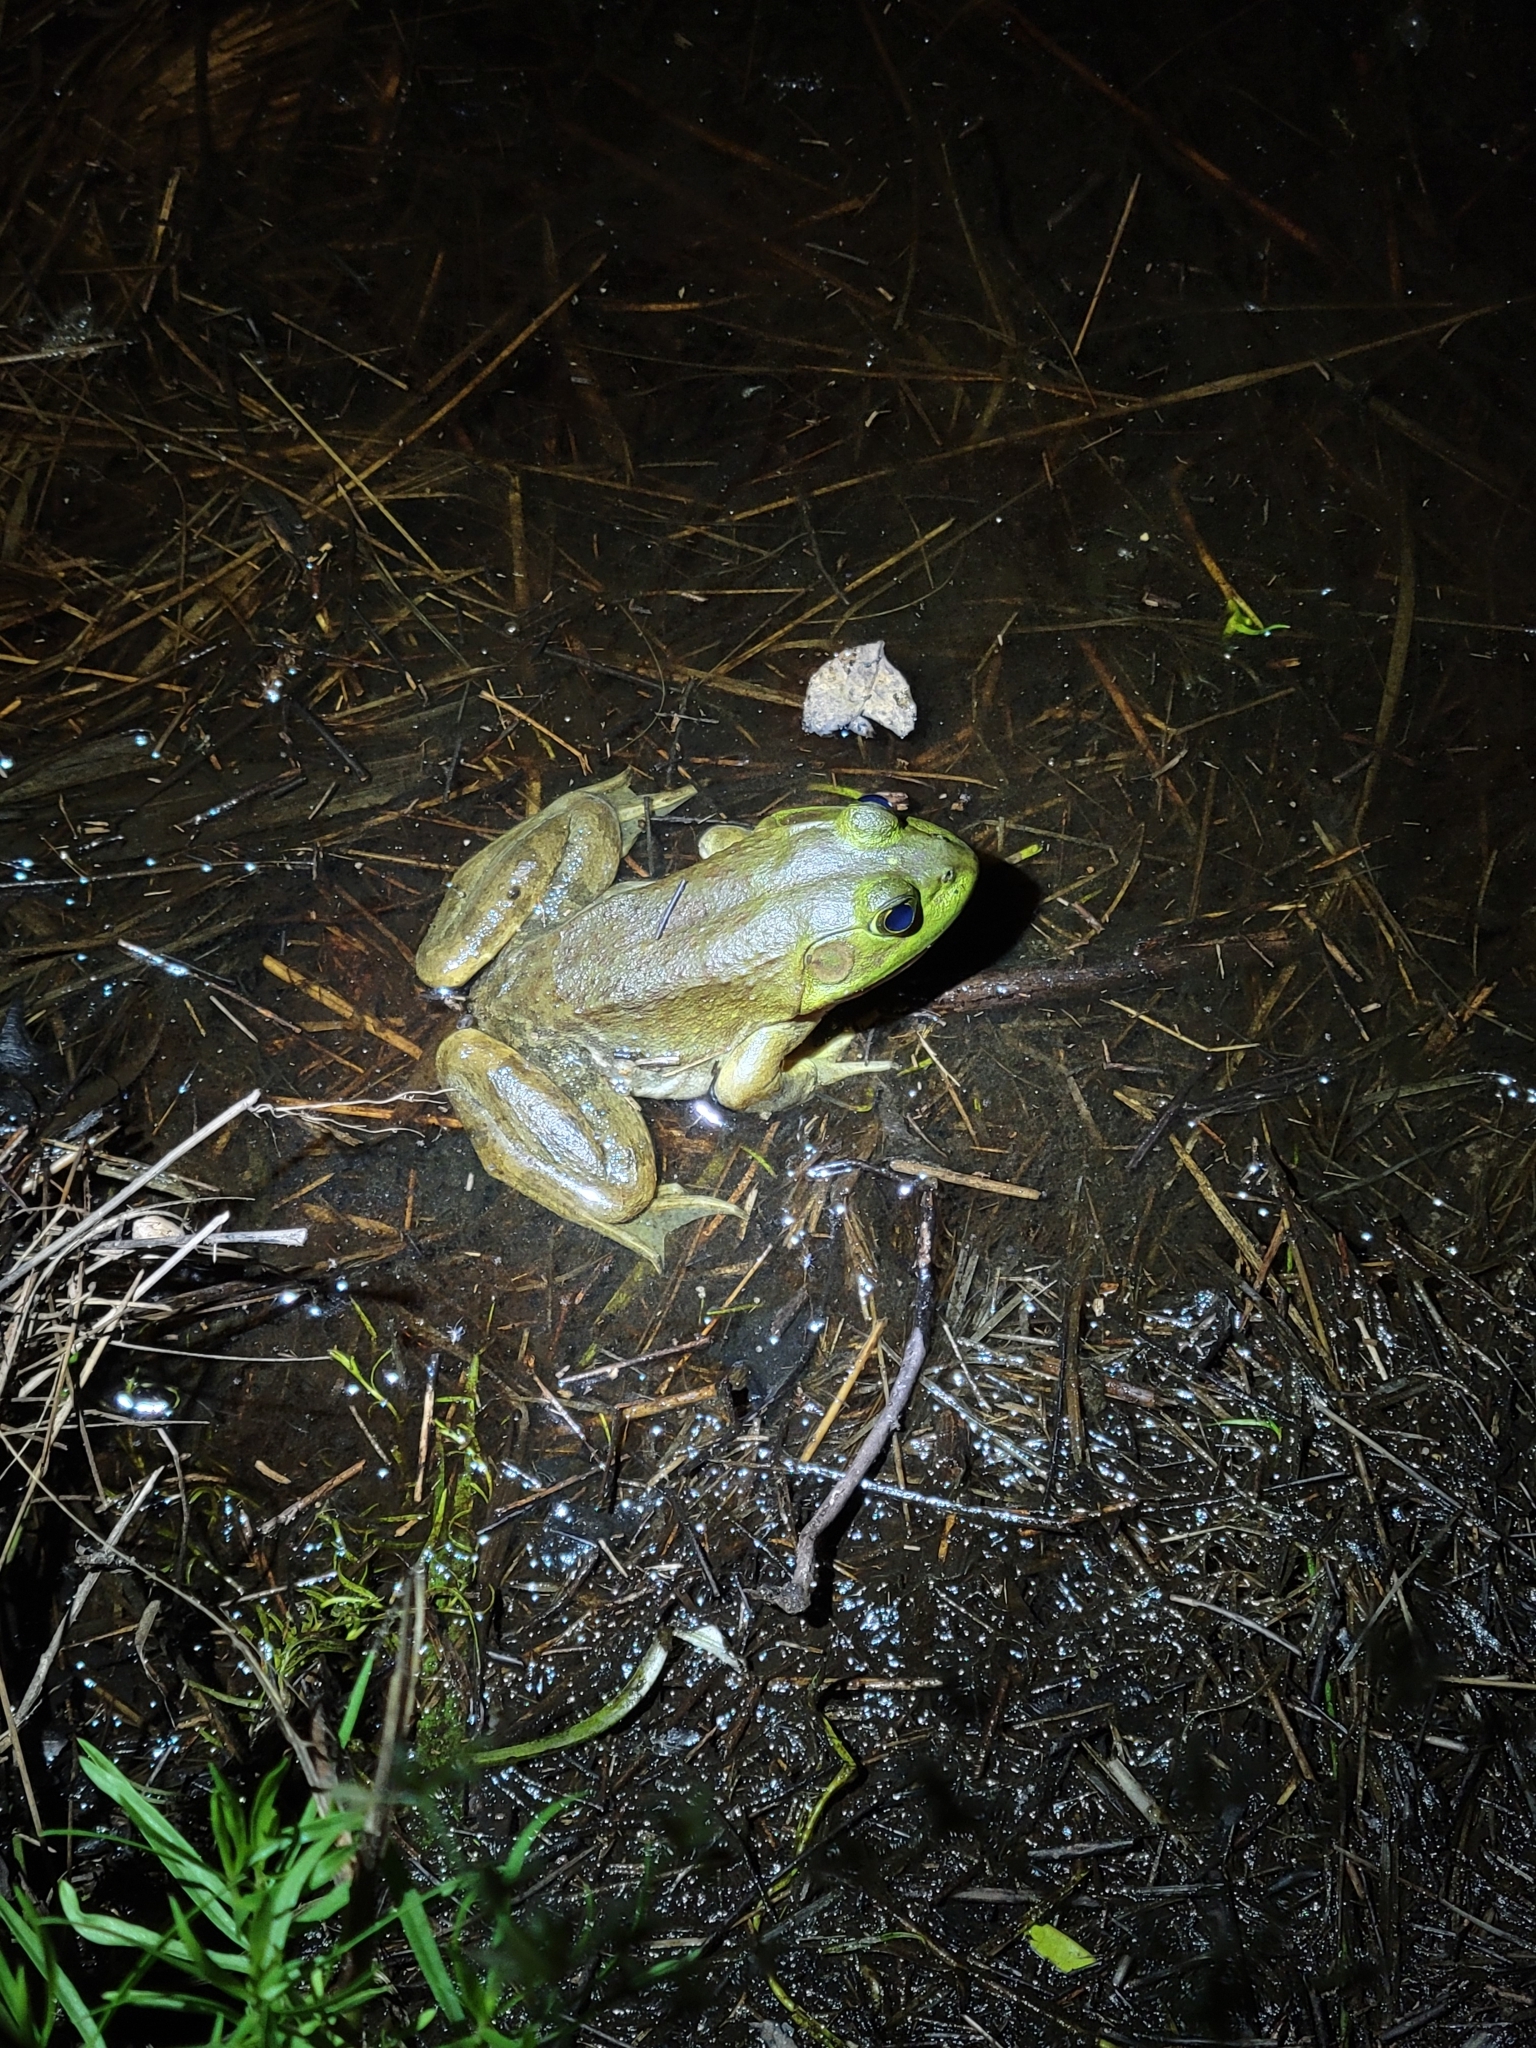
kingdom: Animalia
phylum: Chordata
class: Amphibia
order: Anura
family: Ranidae
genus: Lithobates
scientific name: Lithobates catesbeianus
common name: American bullfrog
